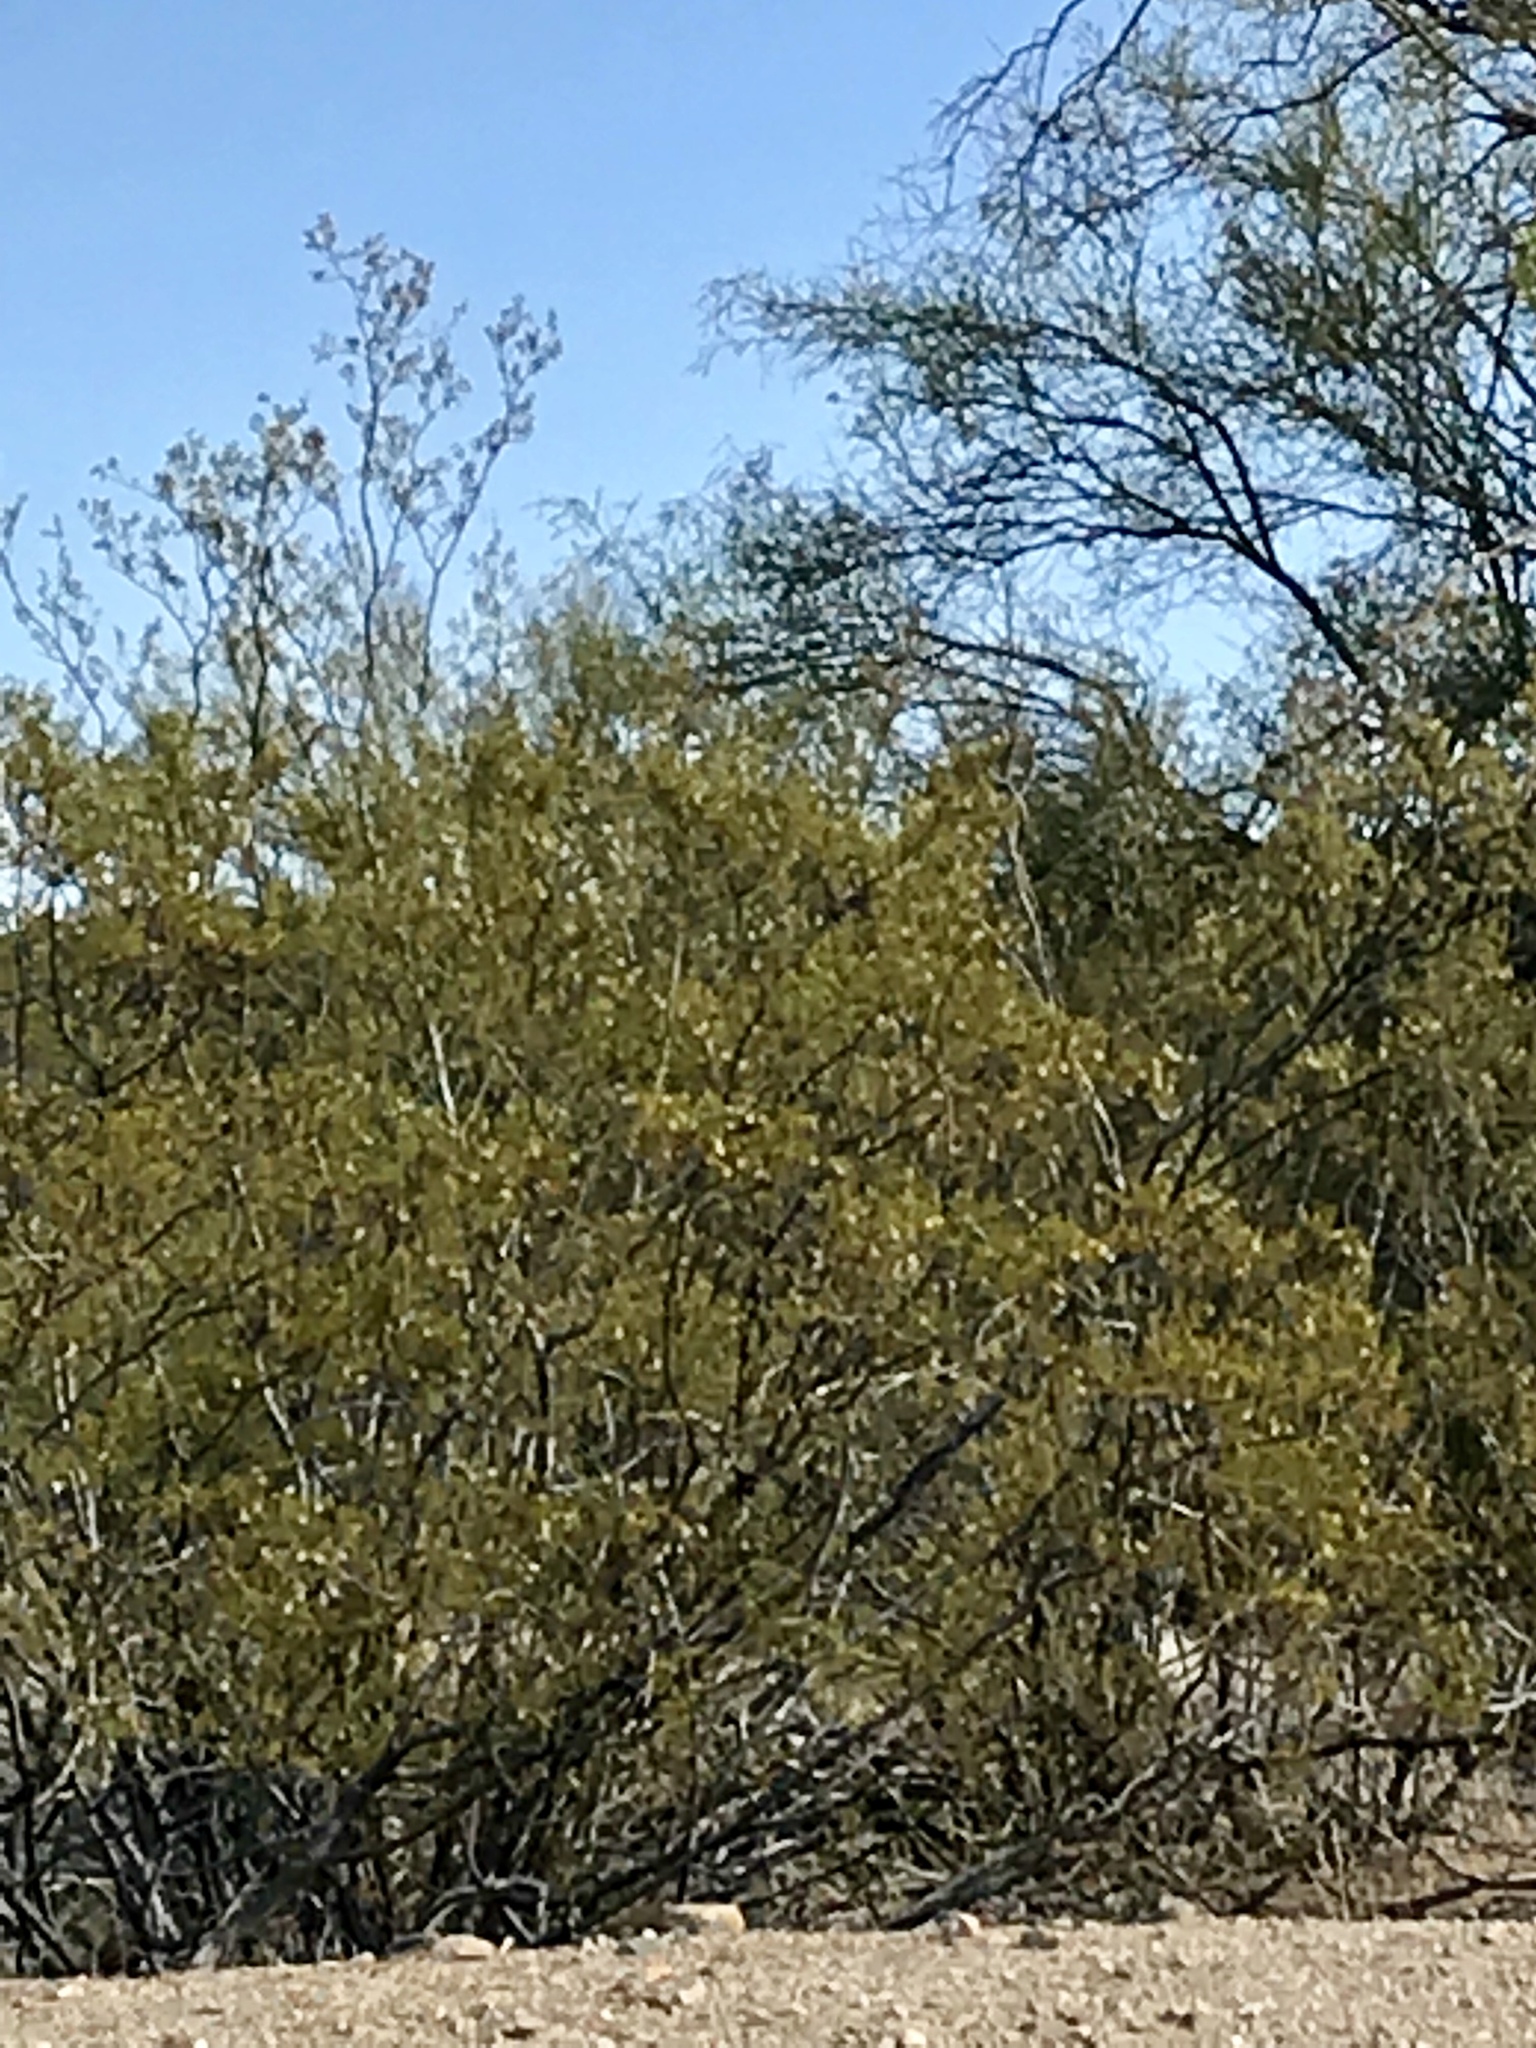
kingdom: Plantae
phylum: Tracheophyta
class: Magnoliopsida
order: Zygophyllales
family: Zygophyllaceae
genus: Larrea
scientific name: Larrea tridentata
